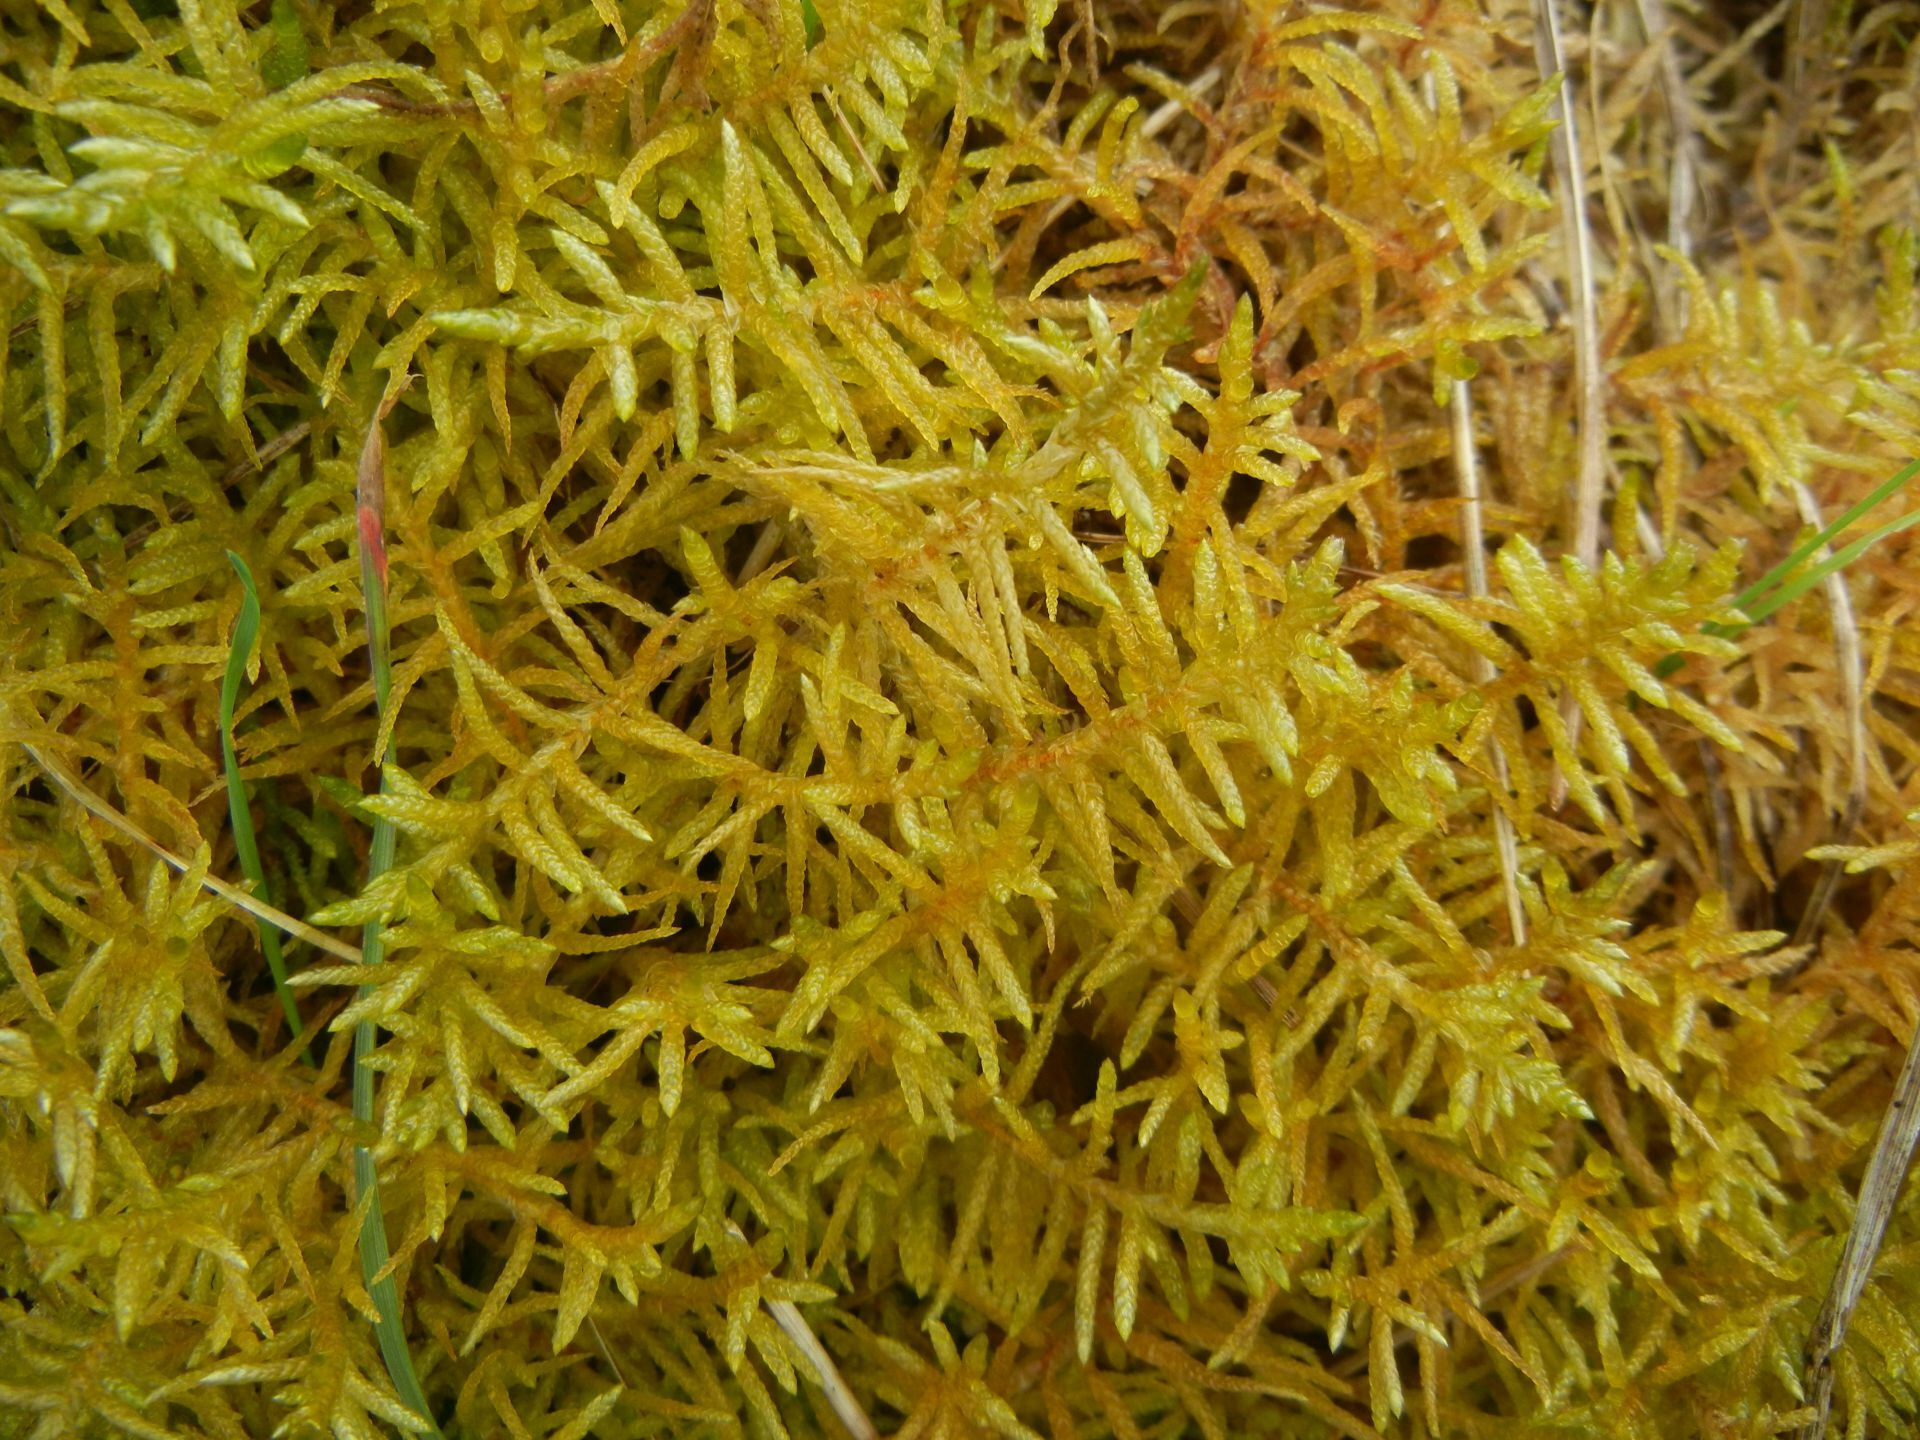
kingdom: Plantae
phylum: Bryophyta
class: Bryopsida
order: Hypnales
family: Brachytheciaceae
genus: Pseudoscleropodium
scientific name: Pseudoscleropodium purum
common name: Neat feather-moss
